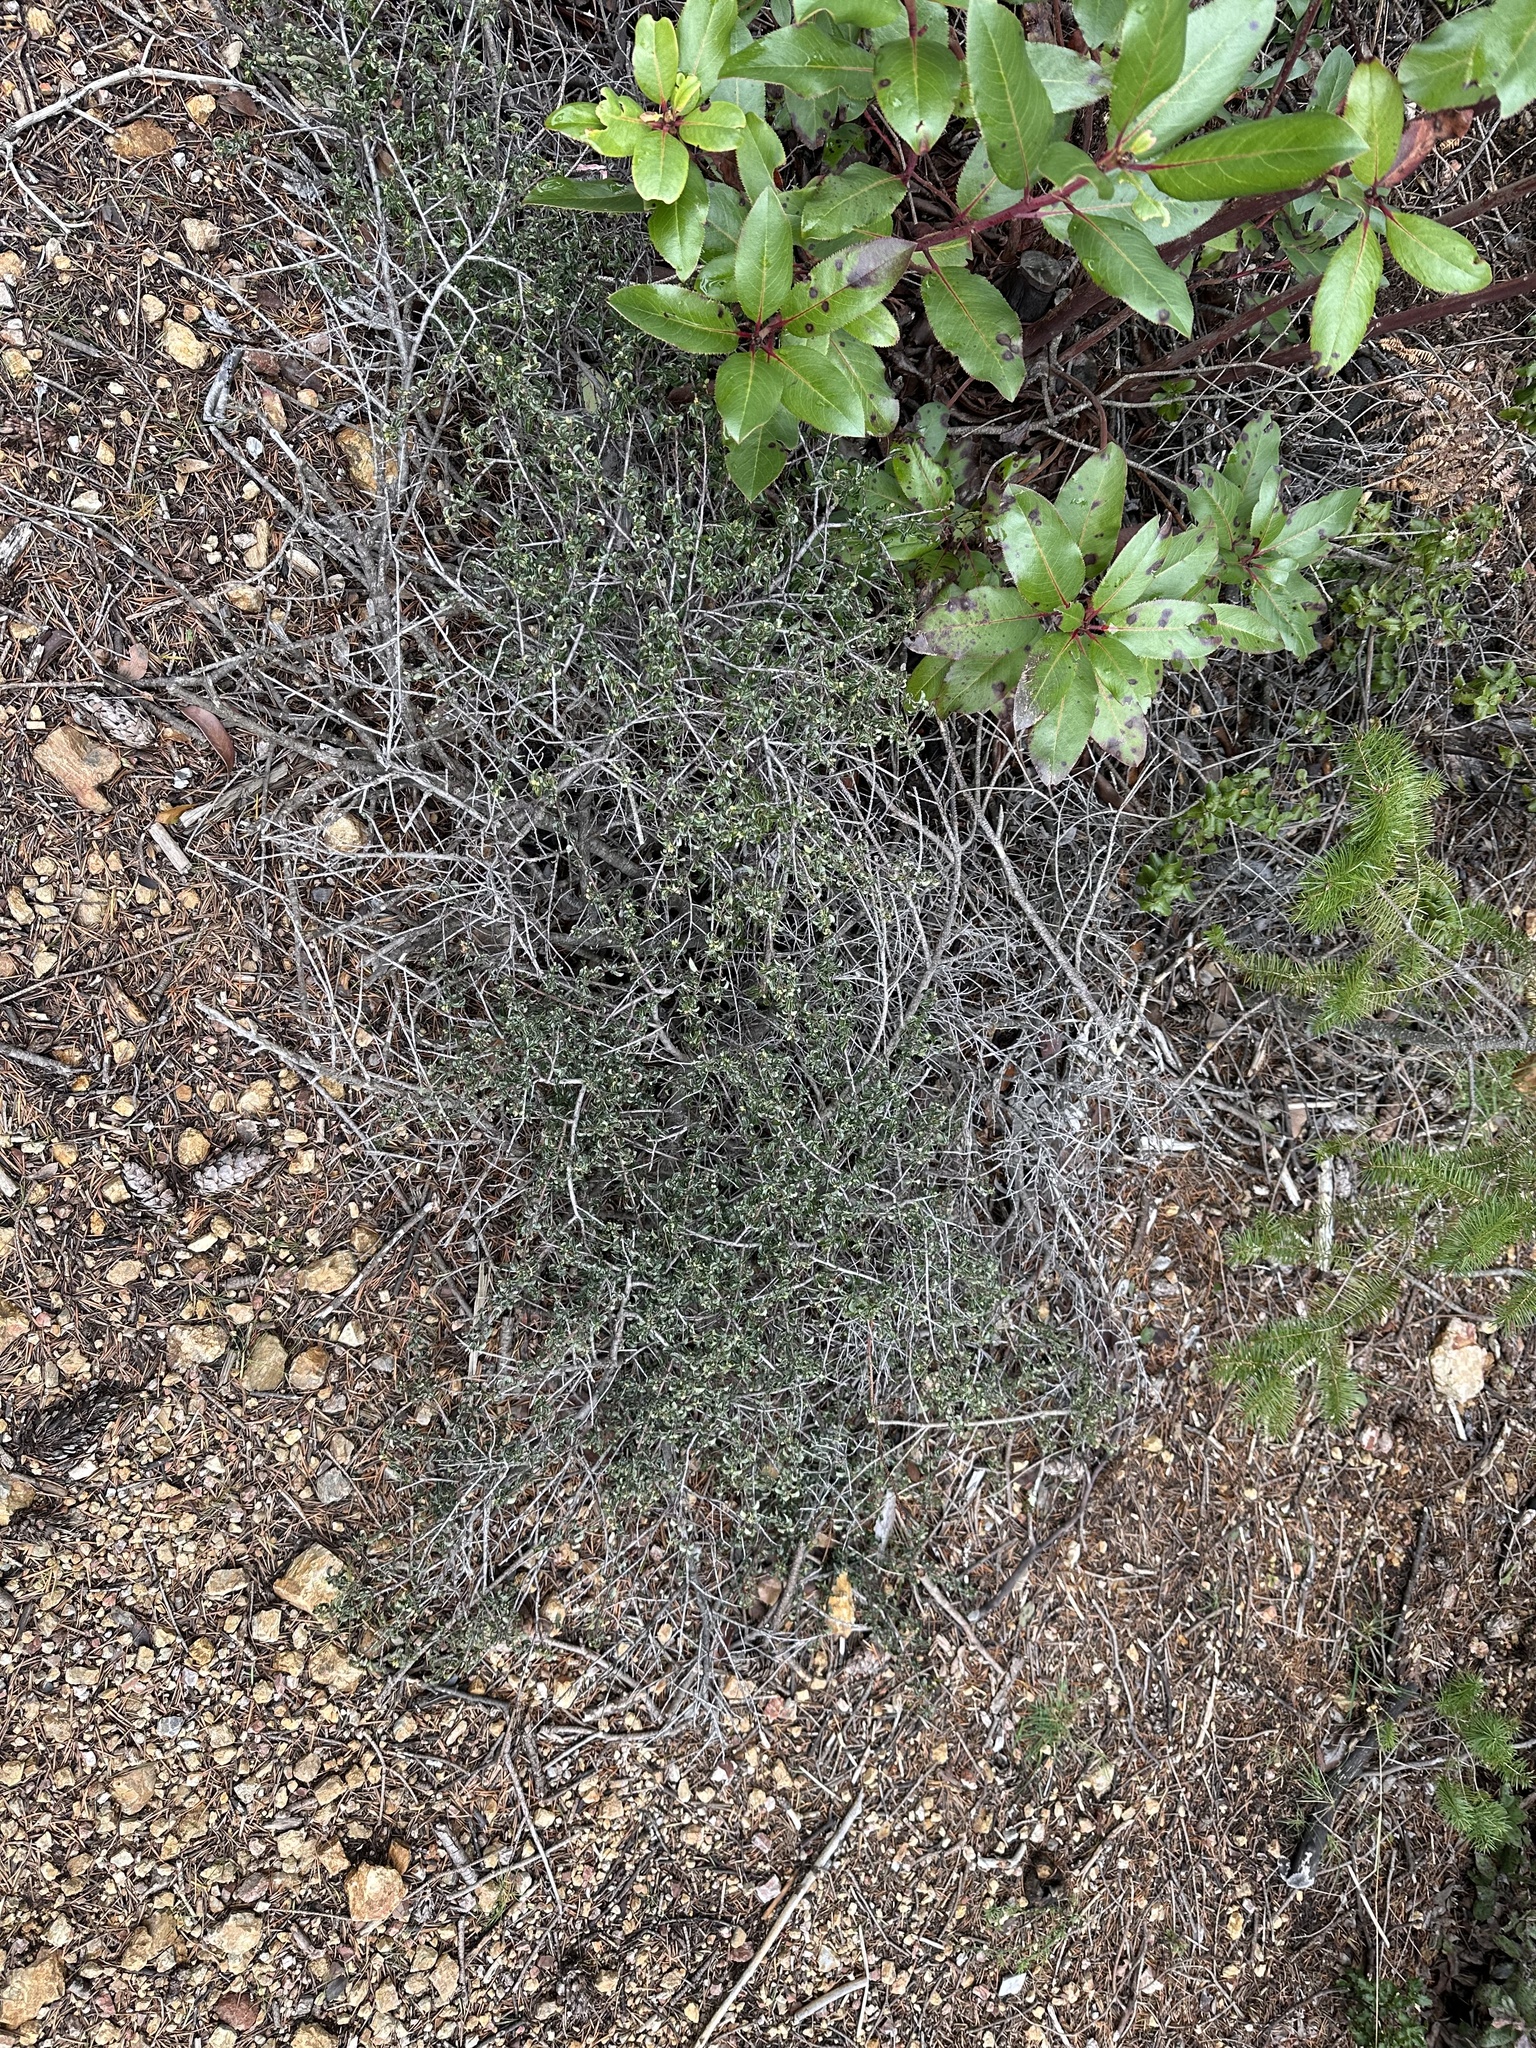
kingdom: Plantae
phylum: Tracheophyta
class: Magnoliopsida
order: Rosales
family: Rhamnaceae
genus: Ceanothus
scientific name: Ceanothus foliosus
